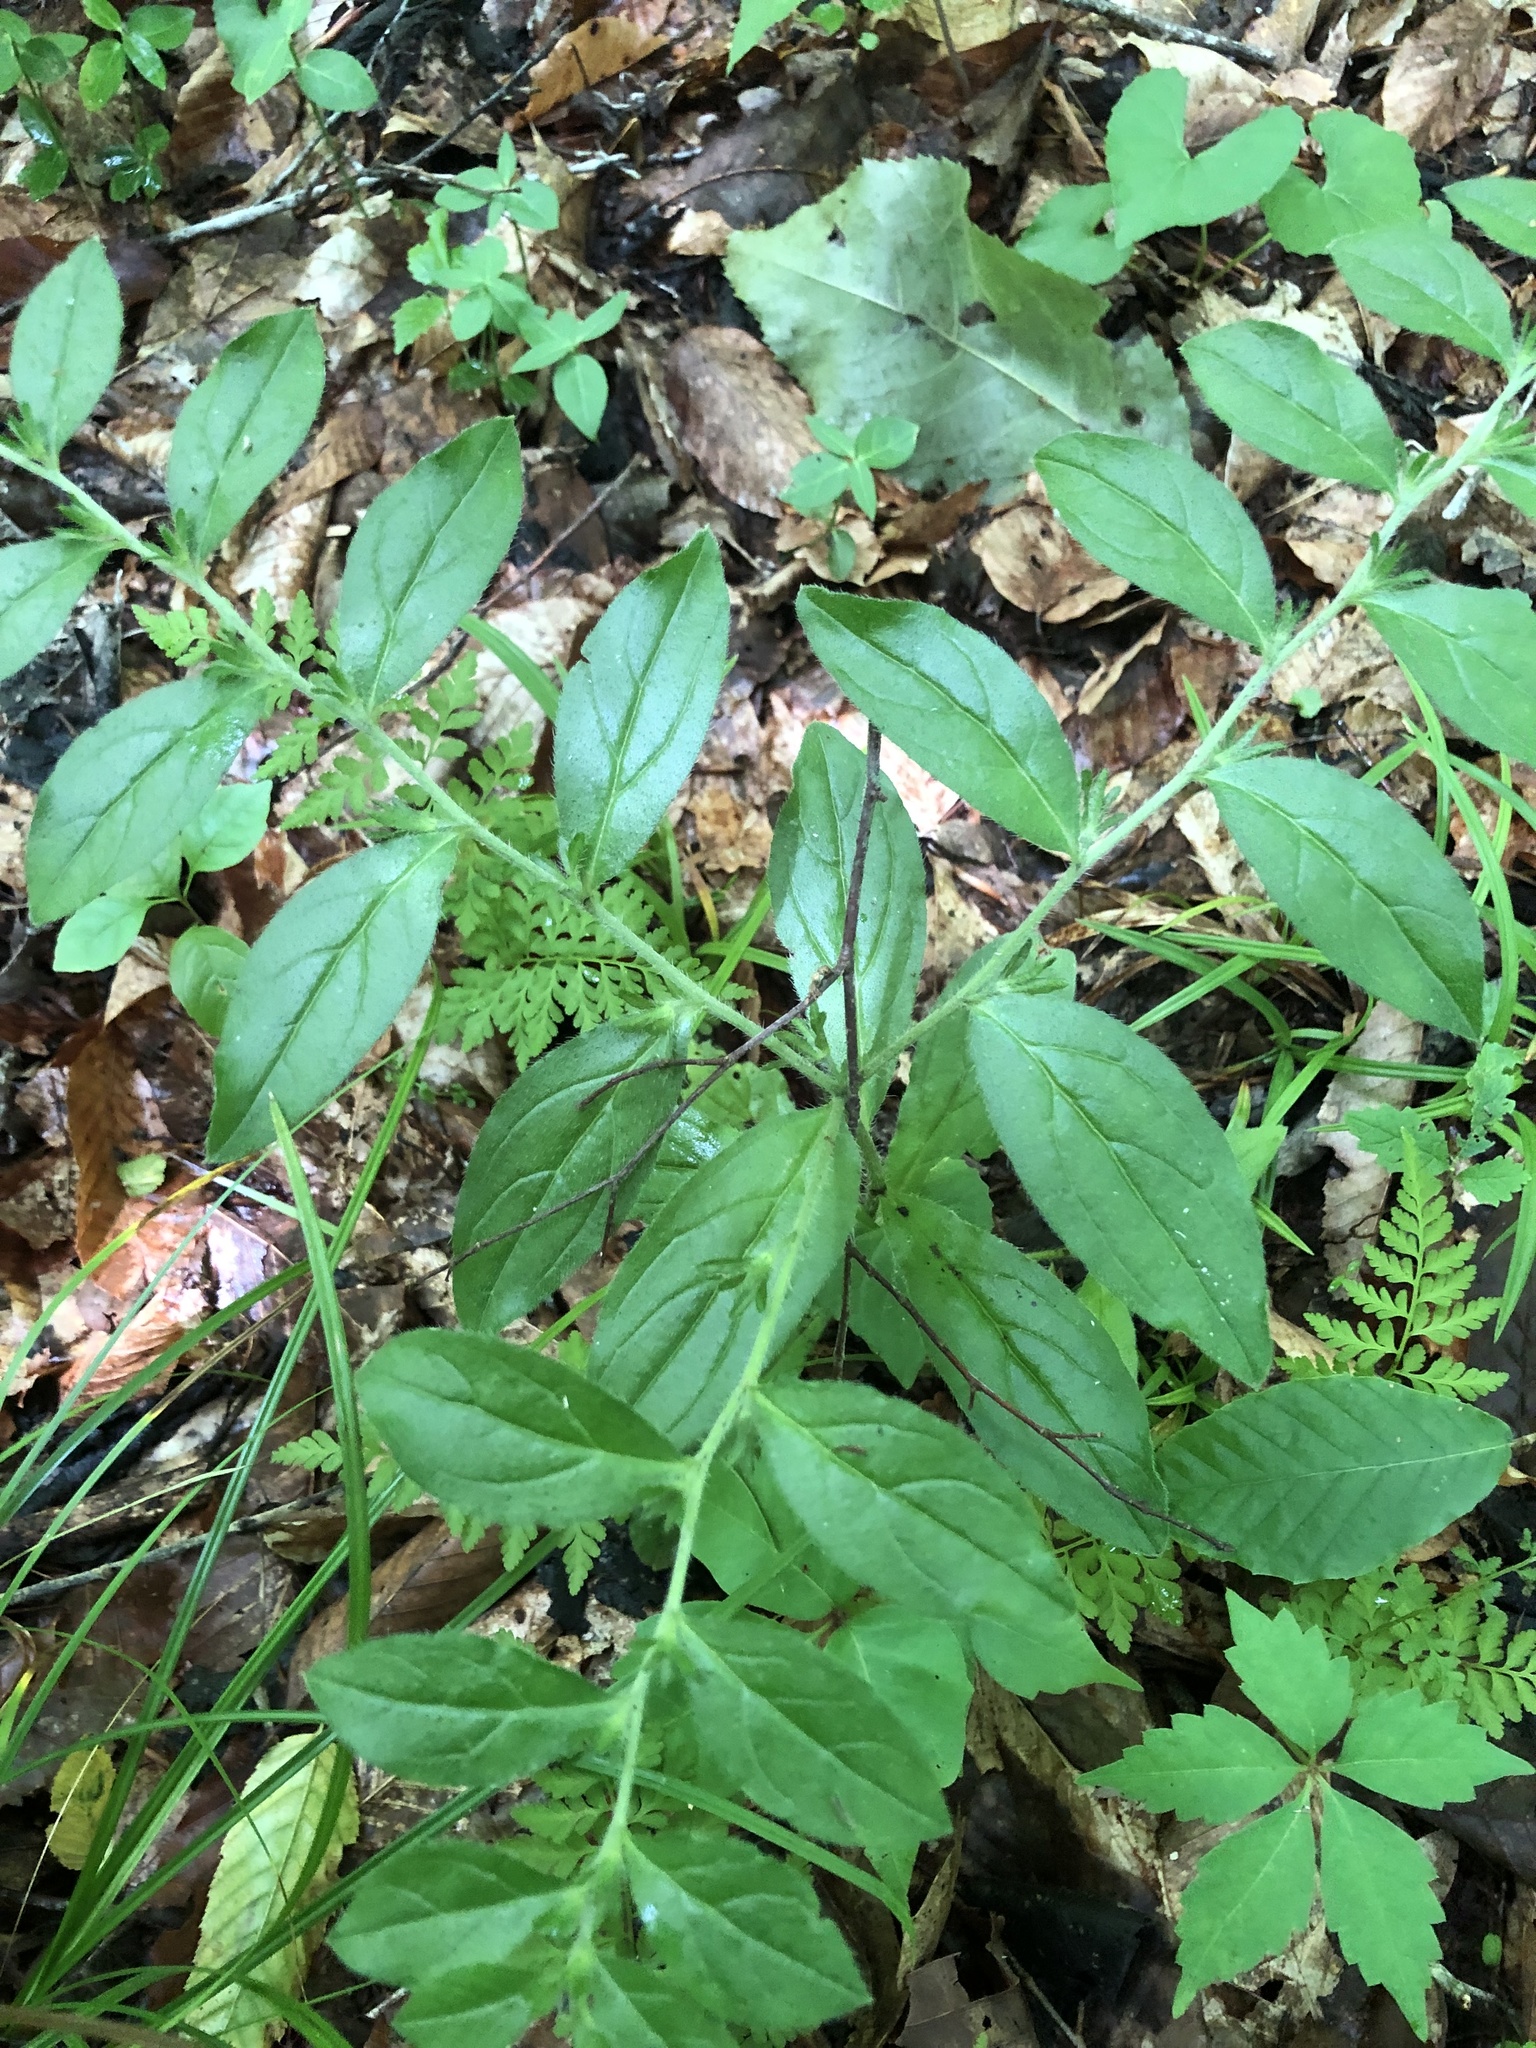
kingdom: Plantae
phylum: Tracheophyta
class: Magnoliopsida
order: Boraginales
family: Boraginaceae
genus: Lithospermum
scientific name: Lithospermum tuberosum
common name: Southern stoneseed
